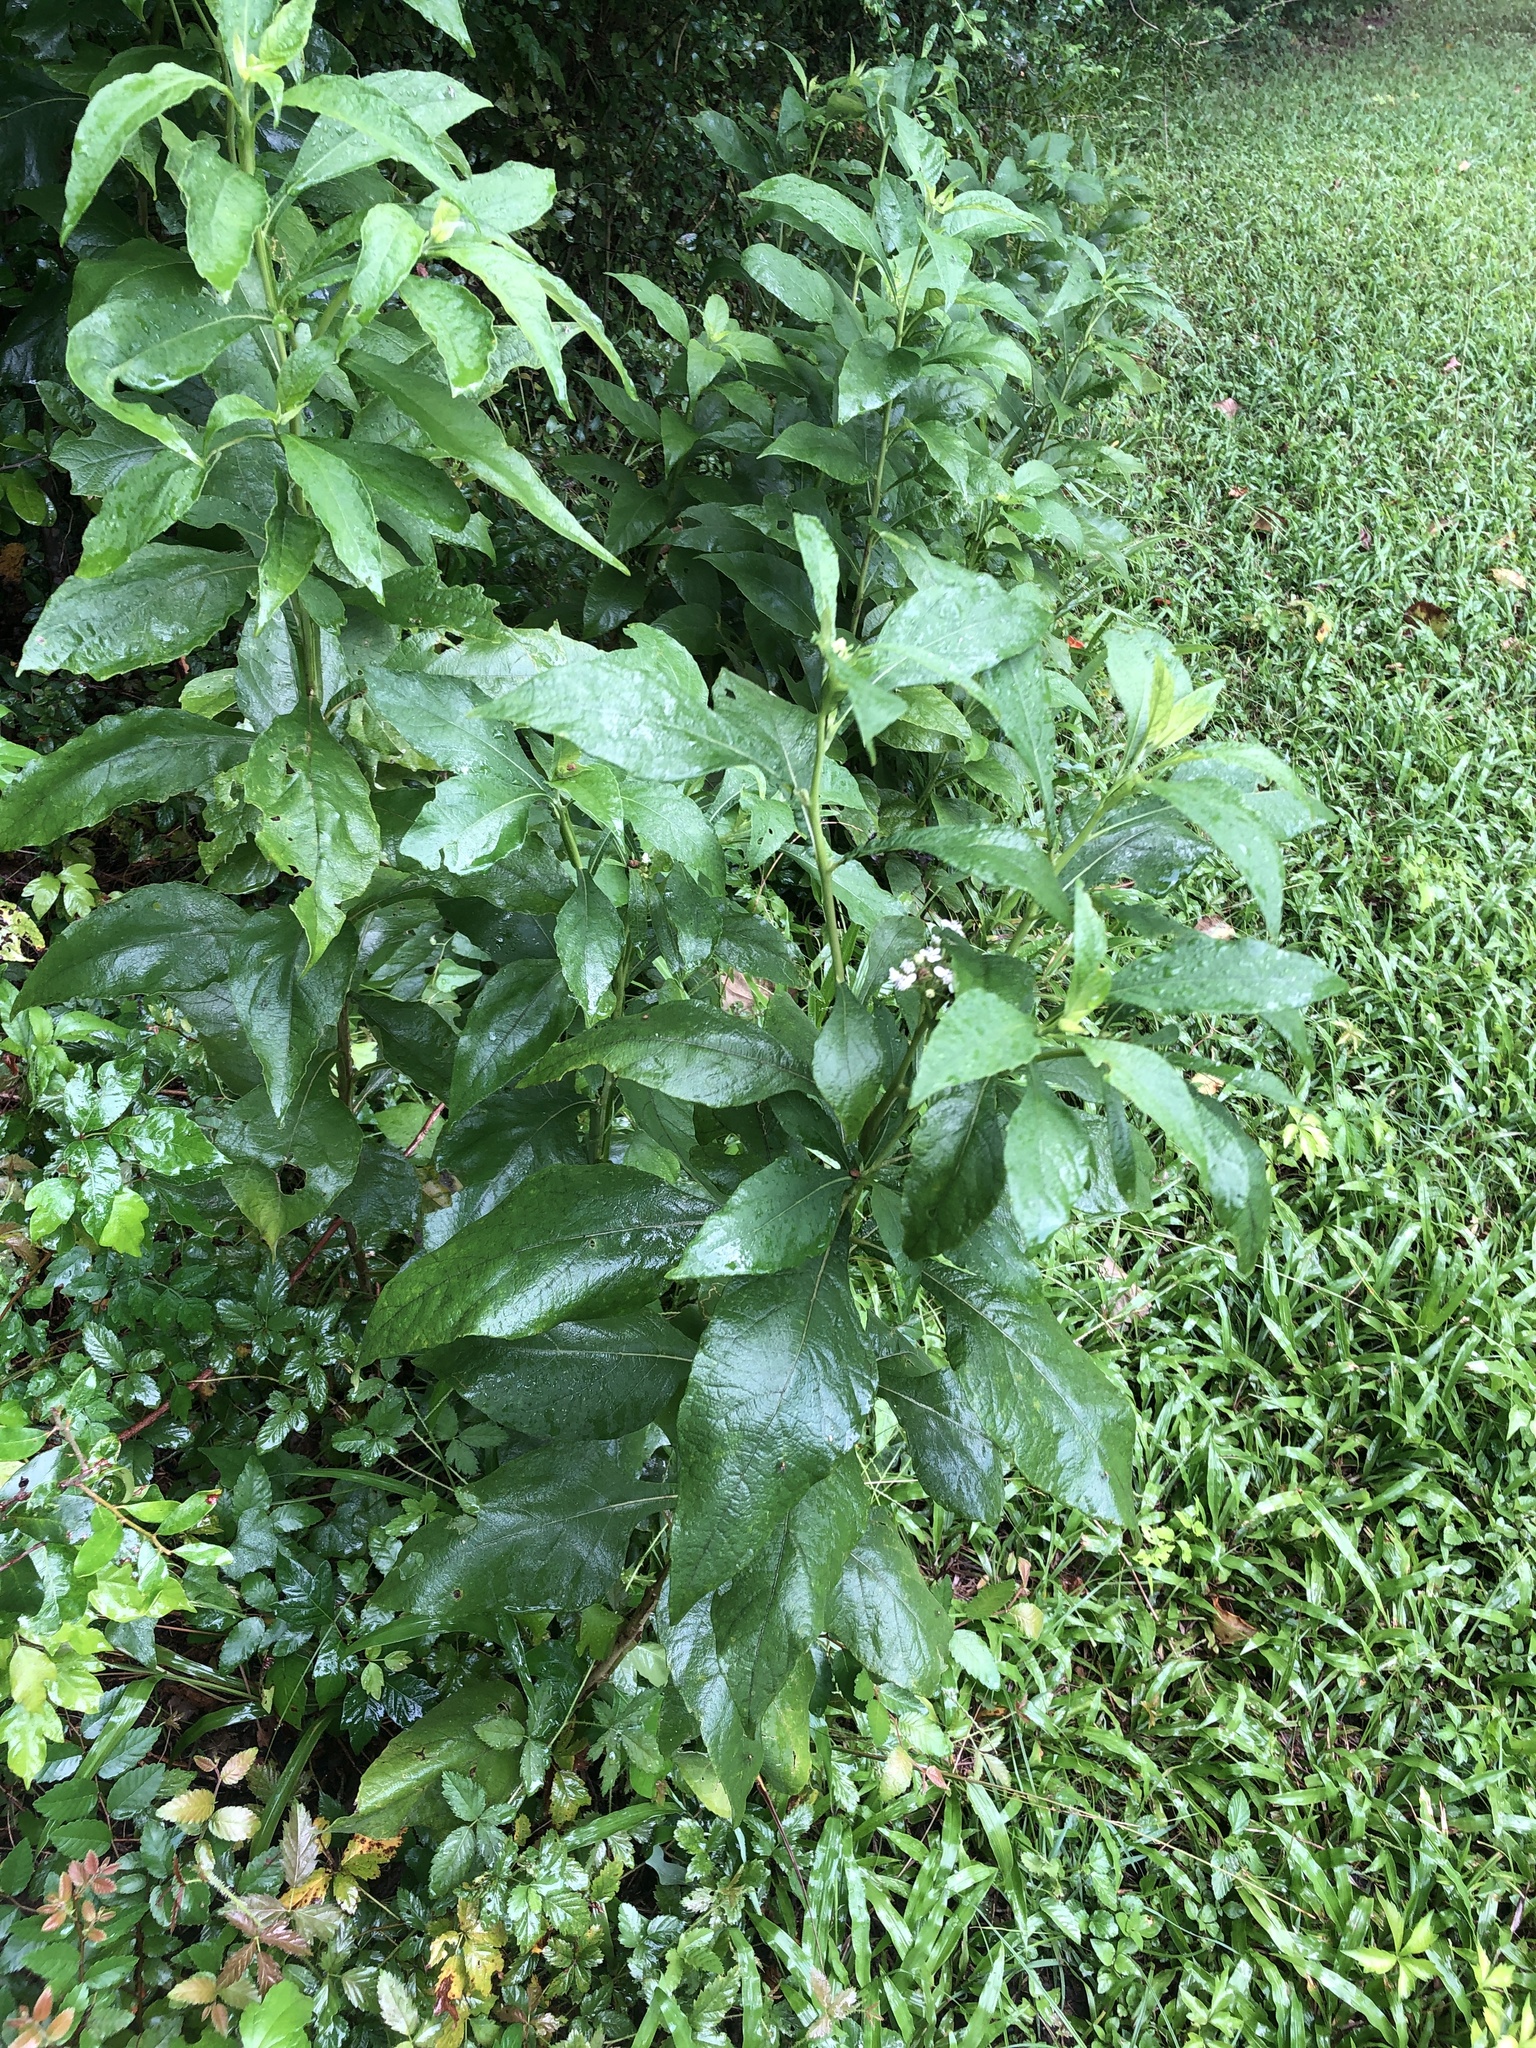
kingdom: Plantae
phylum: Tracheophyta
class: Magnoliopsida
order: Asterales
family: Asteraceae
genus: Verbesina
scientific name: Verbesina virginica
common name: Frostweed
